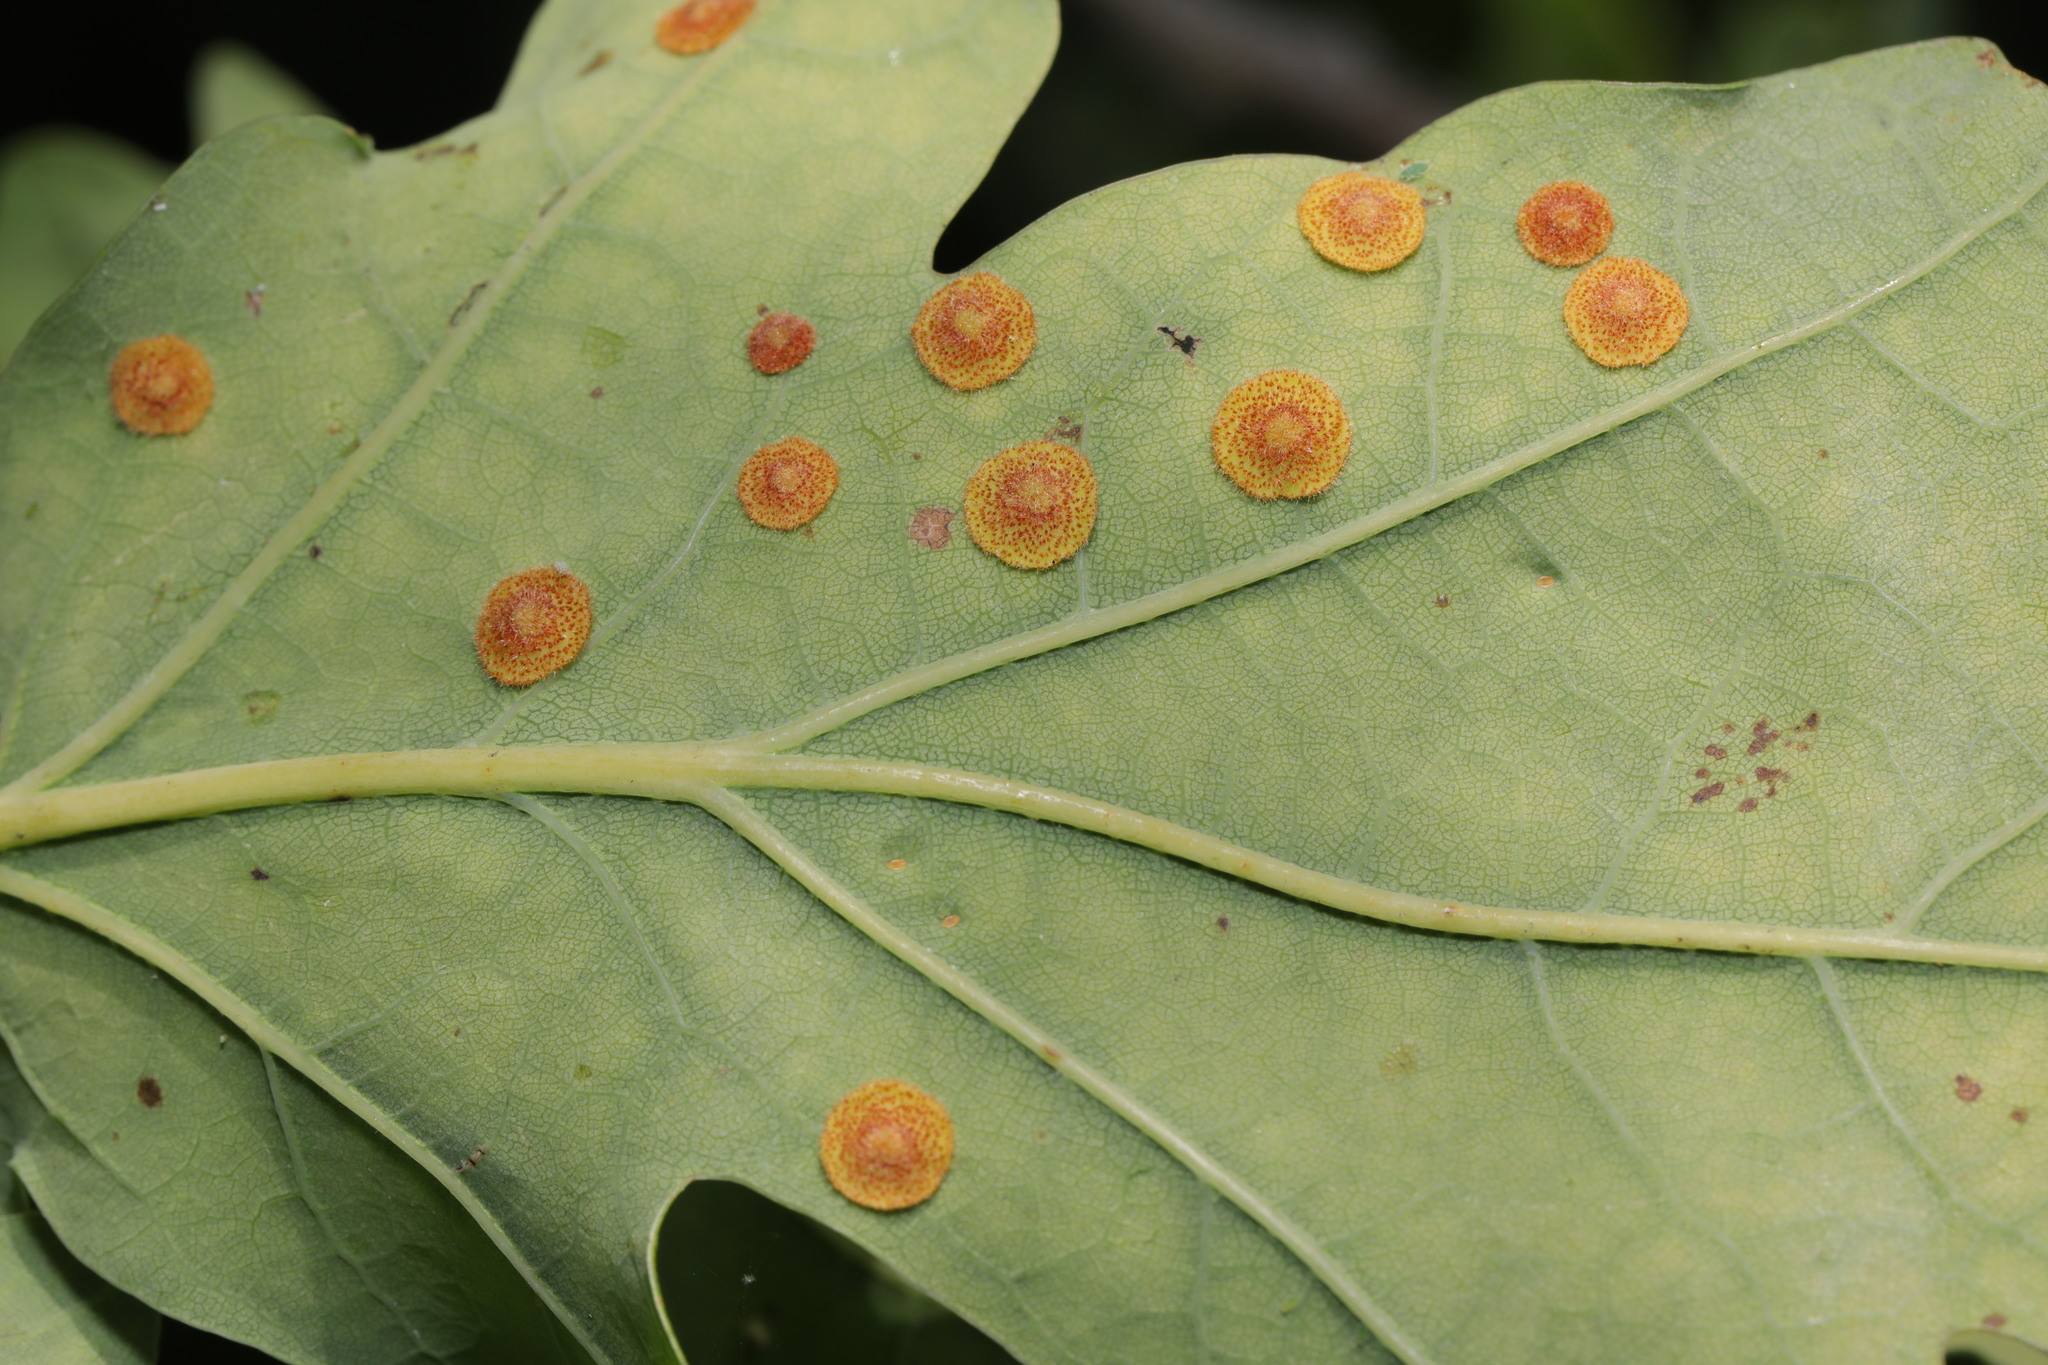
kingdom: Animalia
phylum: Arthropoda
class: Insecta
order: Hymenoptera
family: Cynipidae
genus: Neuroterus
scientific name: Neuroterus quercusbaccarum
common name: Common spangle gall
